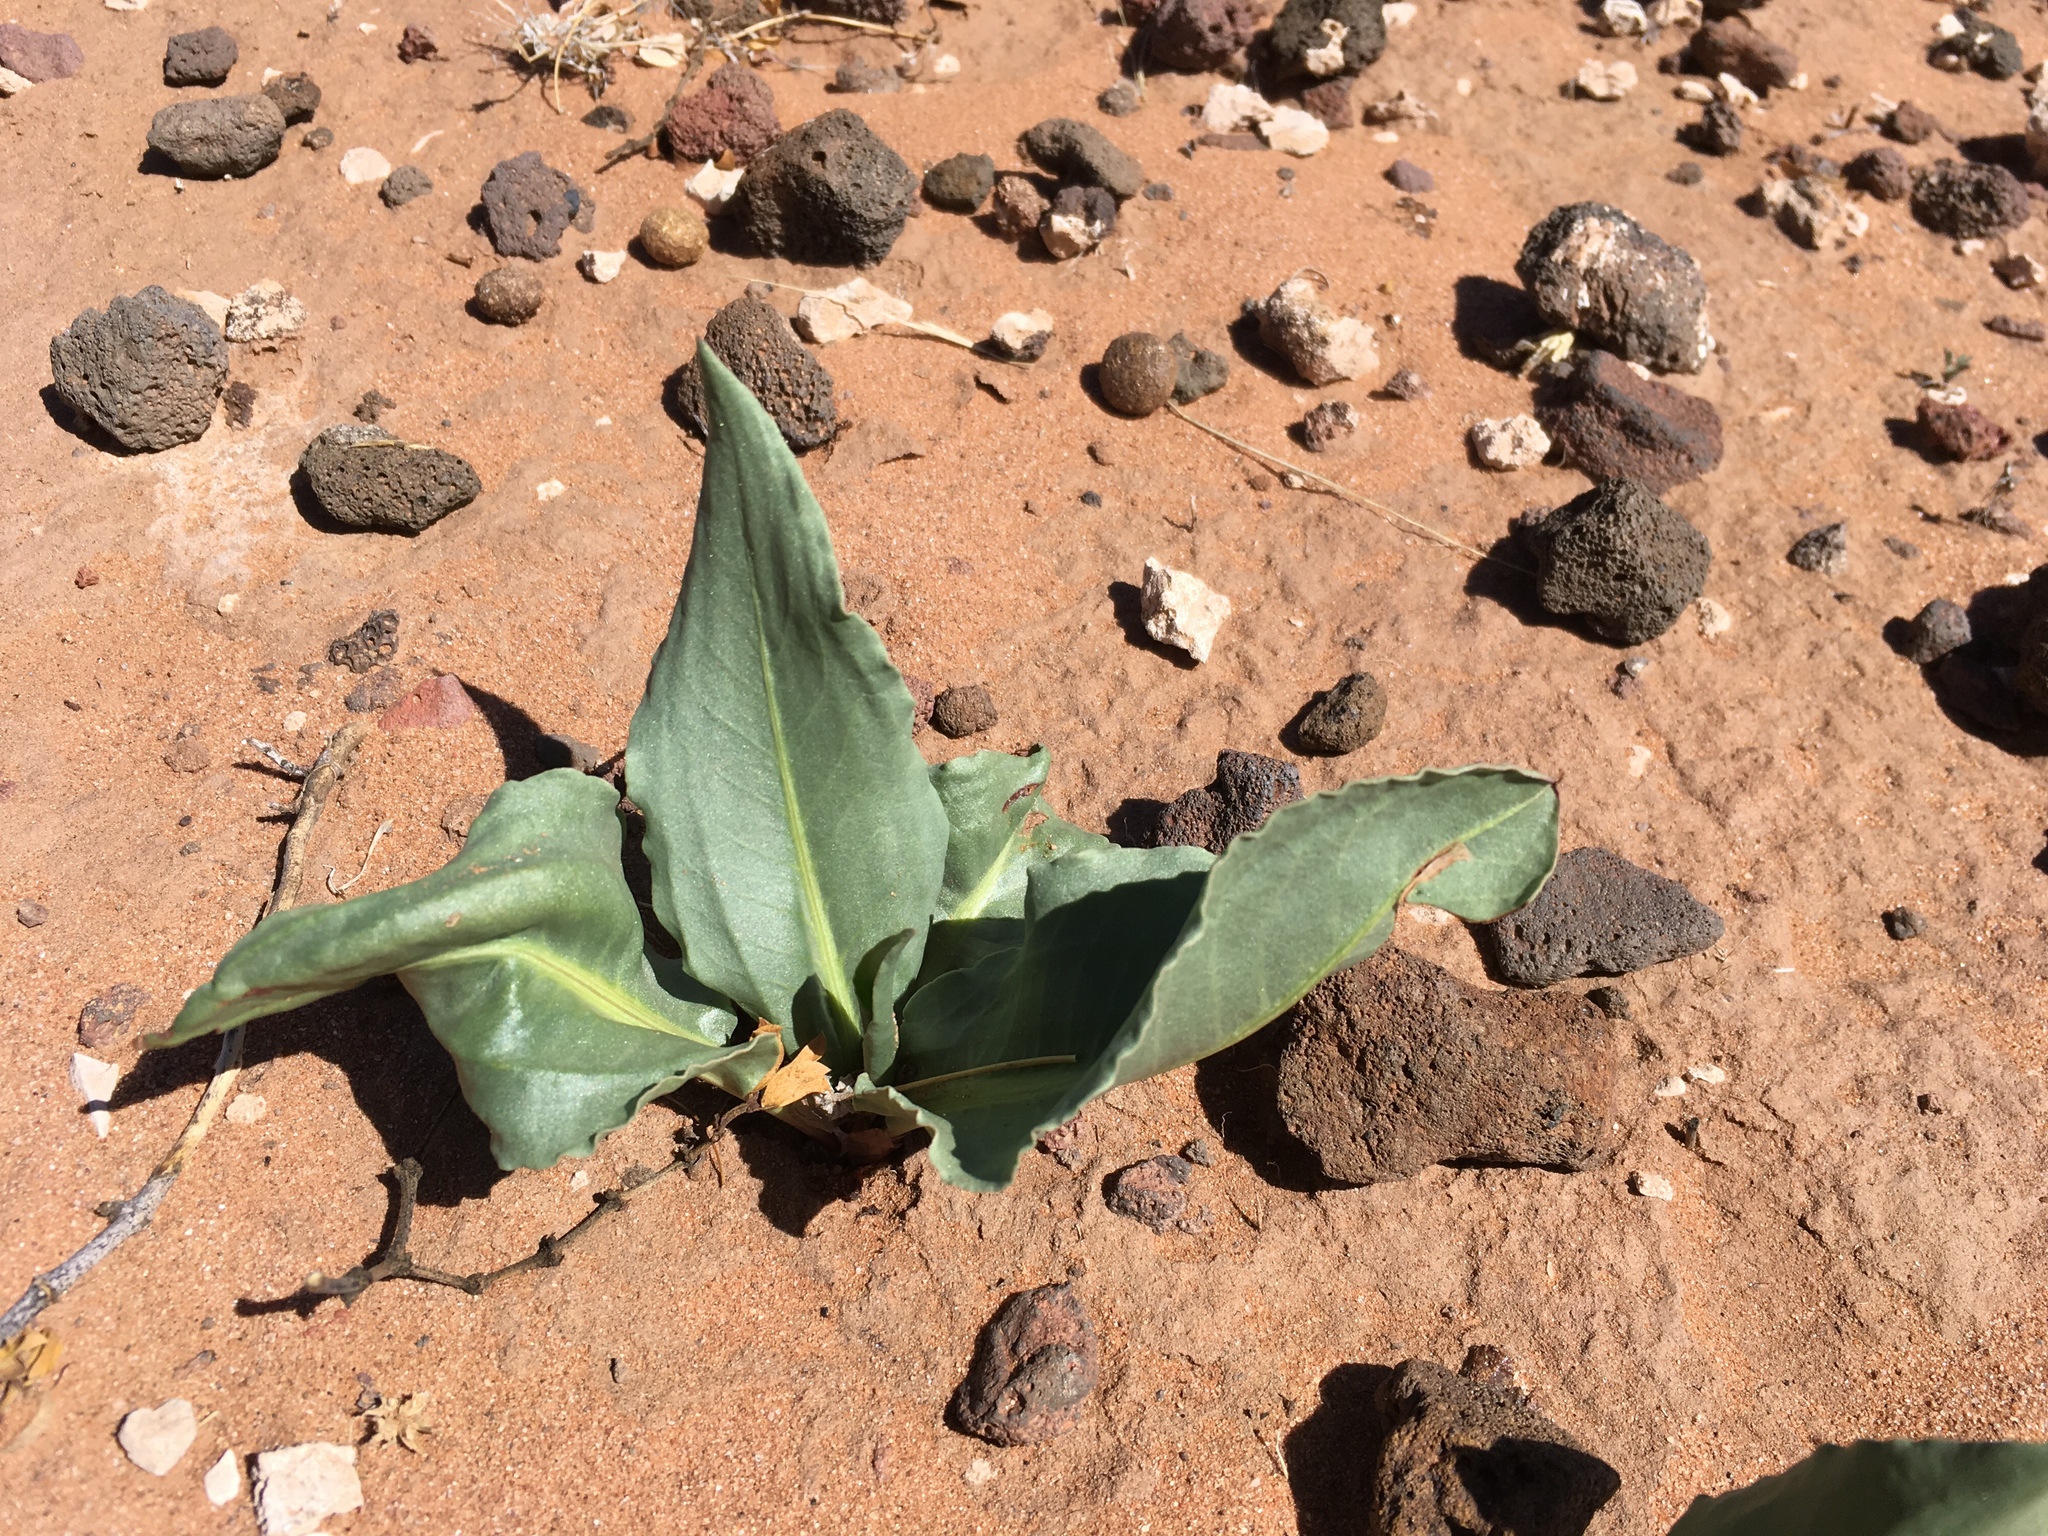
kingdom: Plantae
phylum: Tracheophyta
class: Magnoliopsida
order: Caryophyllales
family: Polygonaceae
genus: Rumex
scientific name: Rumex hymenosepalus
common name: Ganagra
